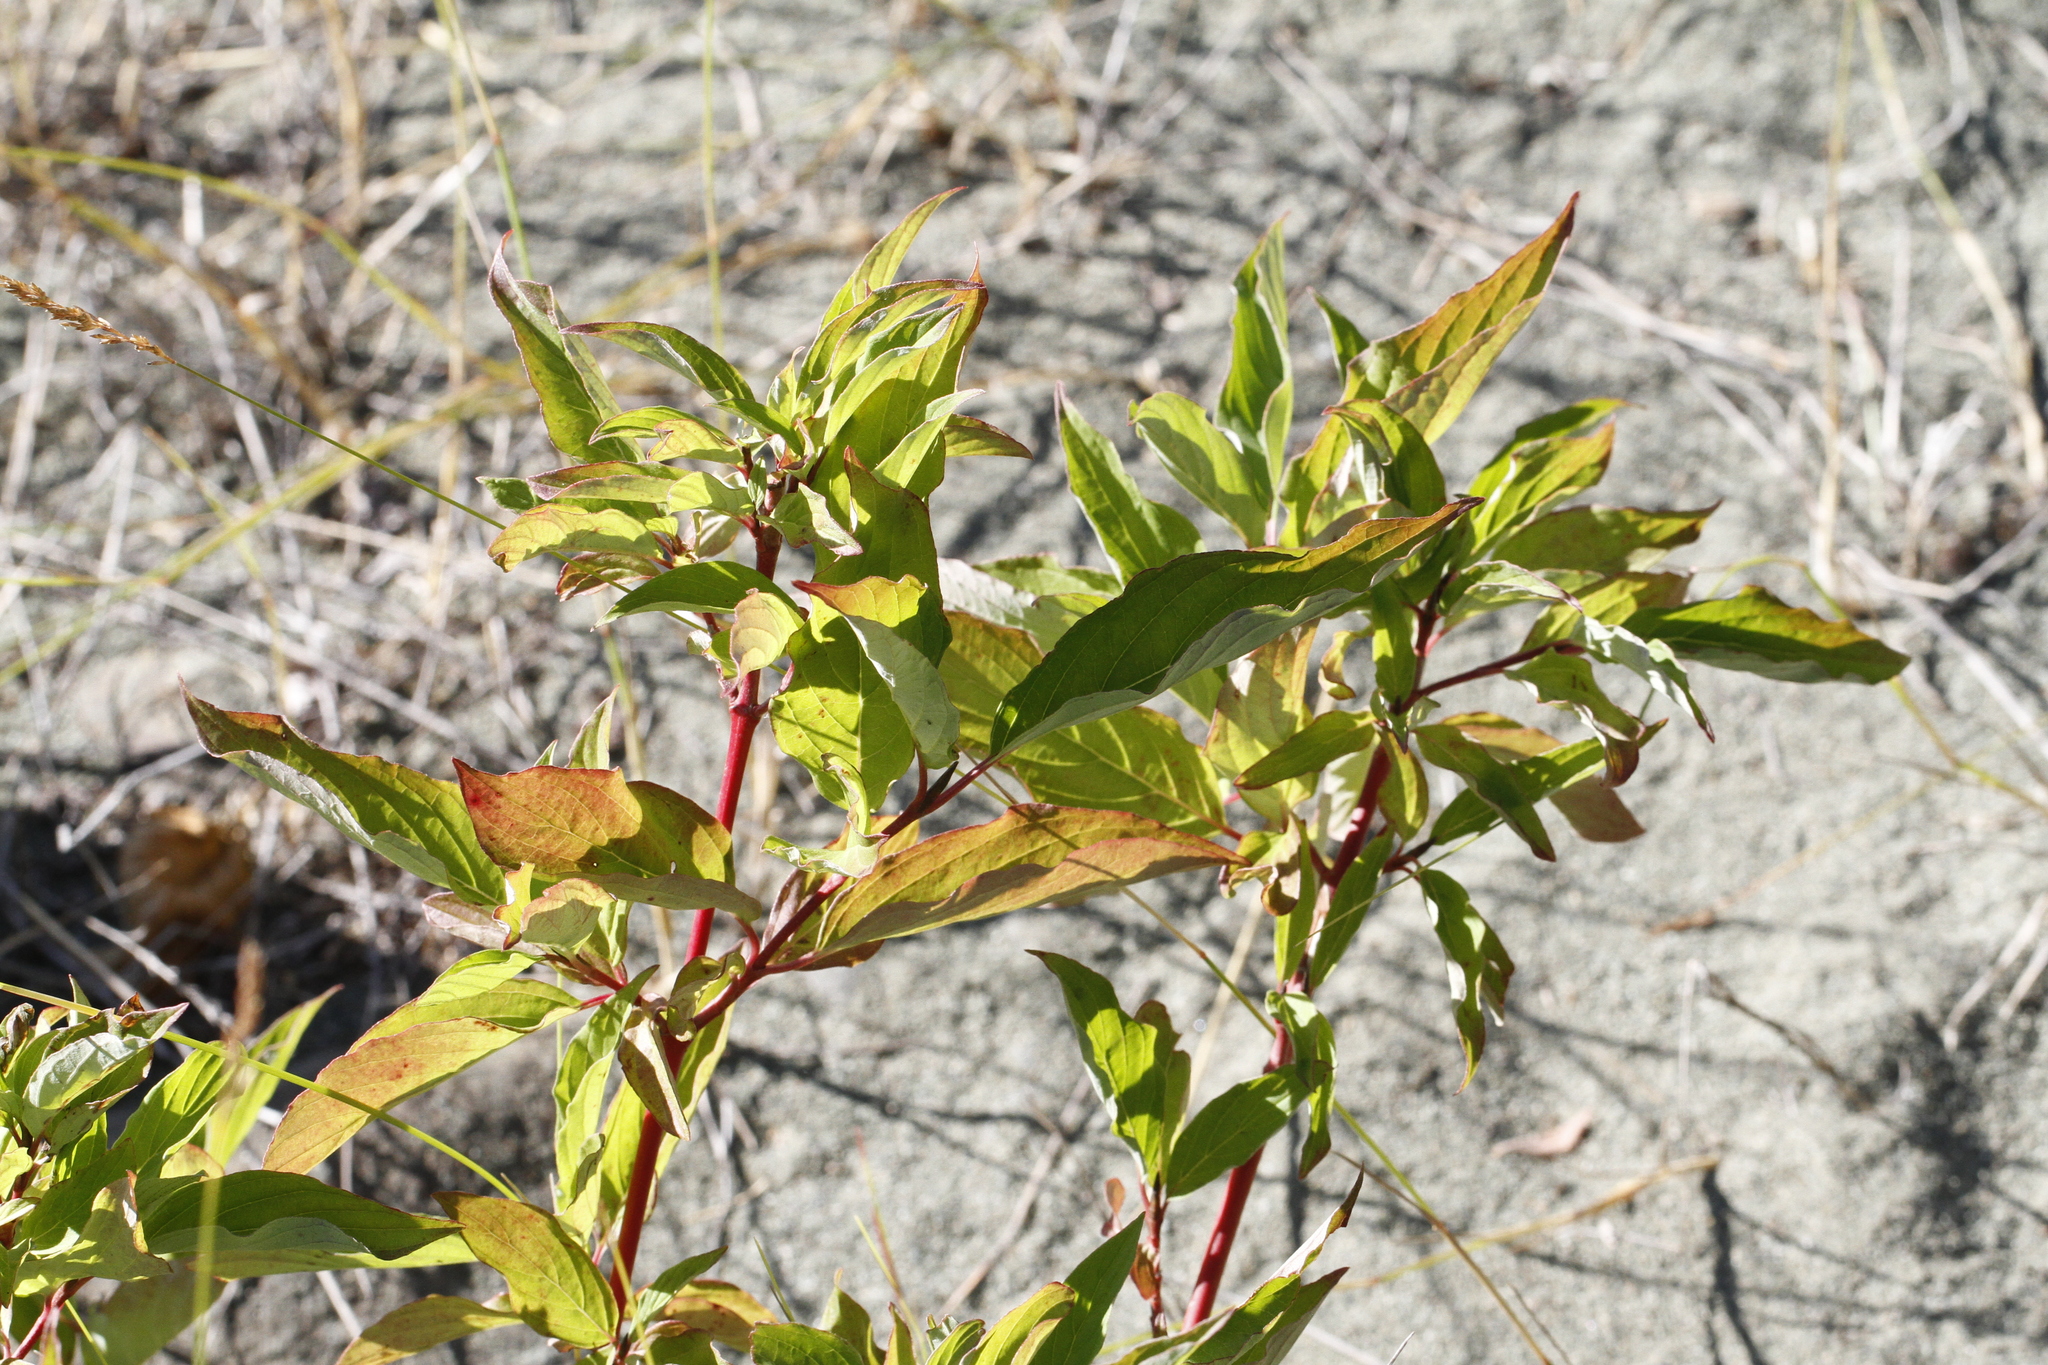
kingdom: Plantae
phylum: Tracheophyta
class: Magnoliopsida
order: Cornales
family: Cornaceae
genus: Cornus
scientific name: Cornus sericea
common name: Red-osier dogwood
